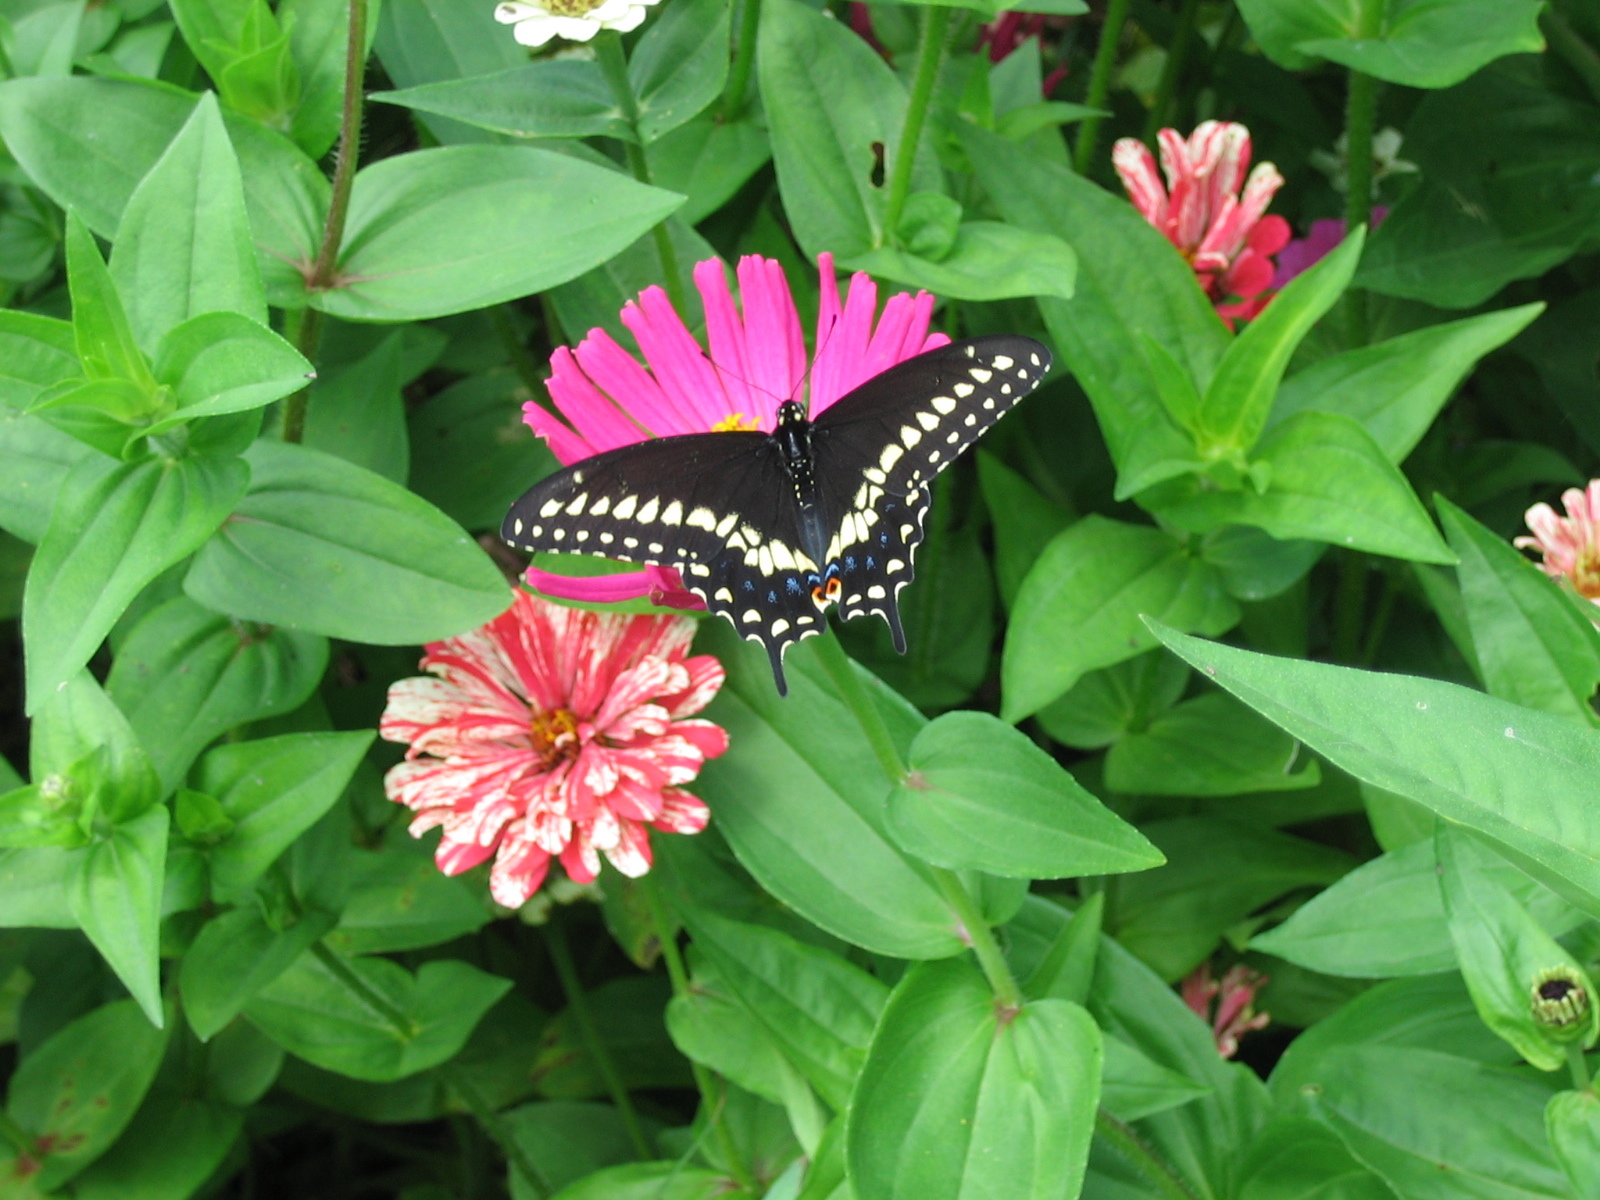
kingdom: Animalia
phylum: Arthropoda
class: Insecta
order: Lepidoptera
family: Papilionidae
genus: Papilio
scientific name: Papilio polyxenes
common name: Black swallowtail
